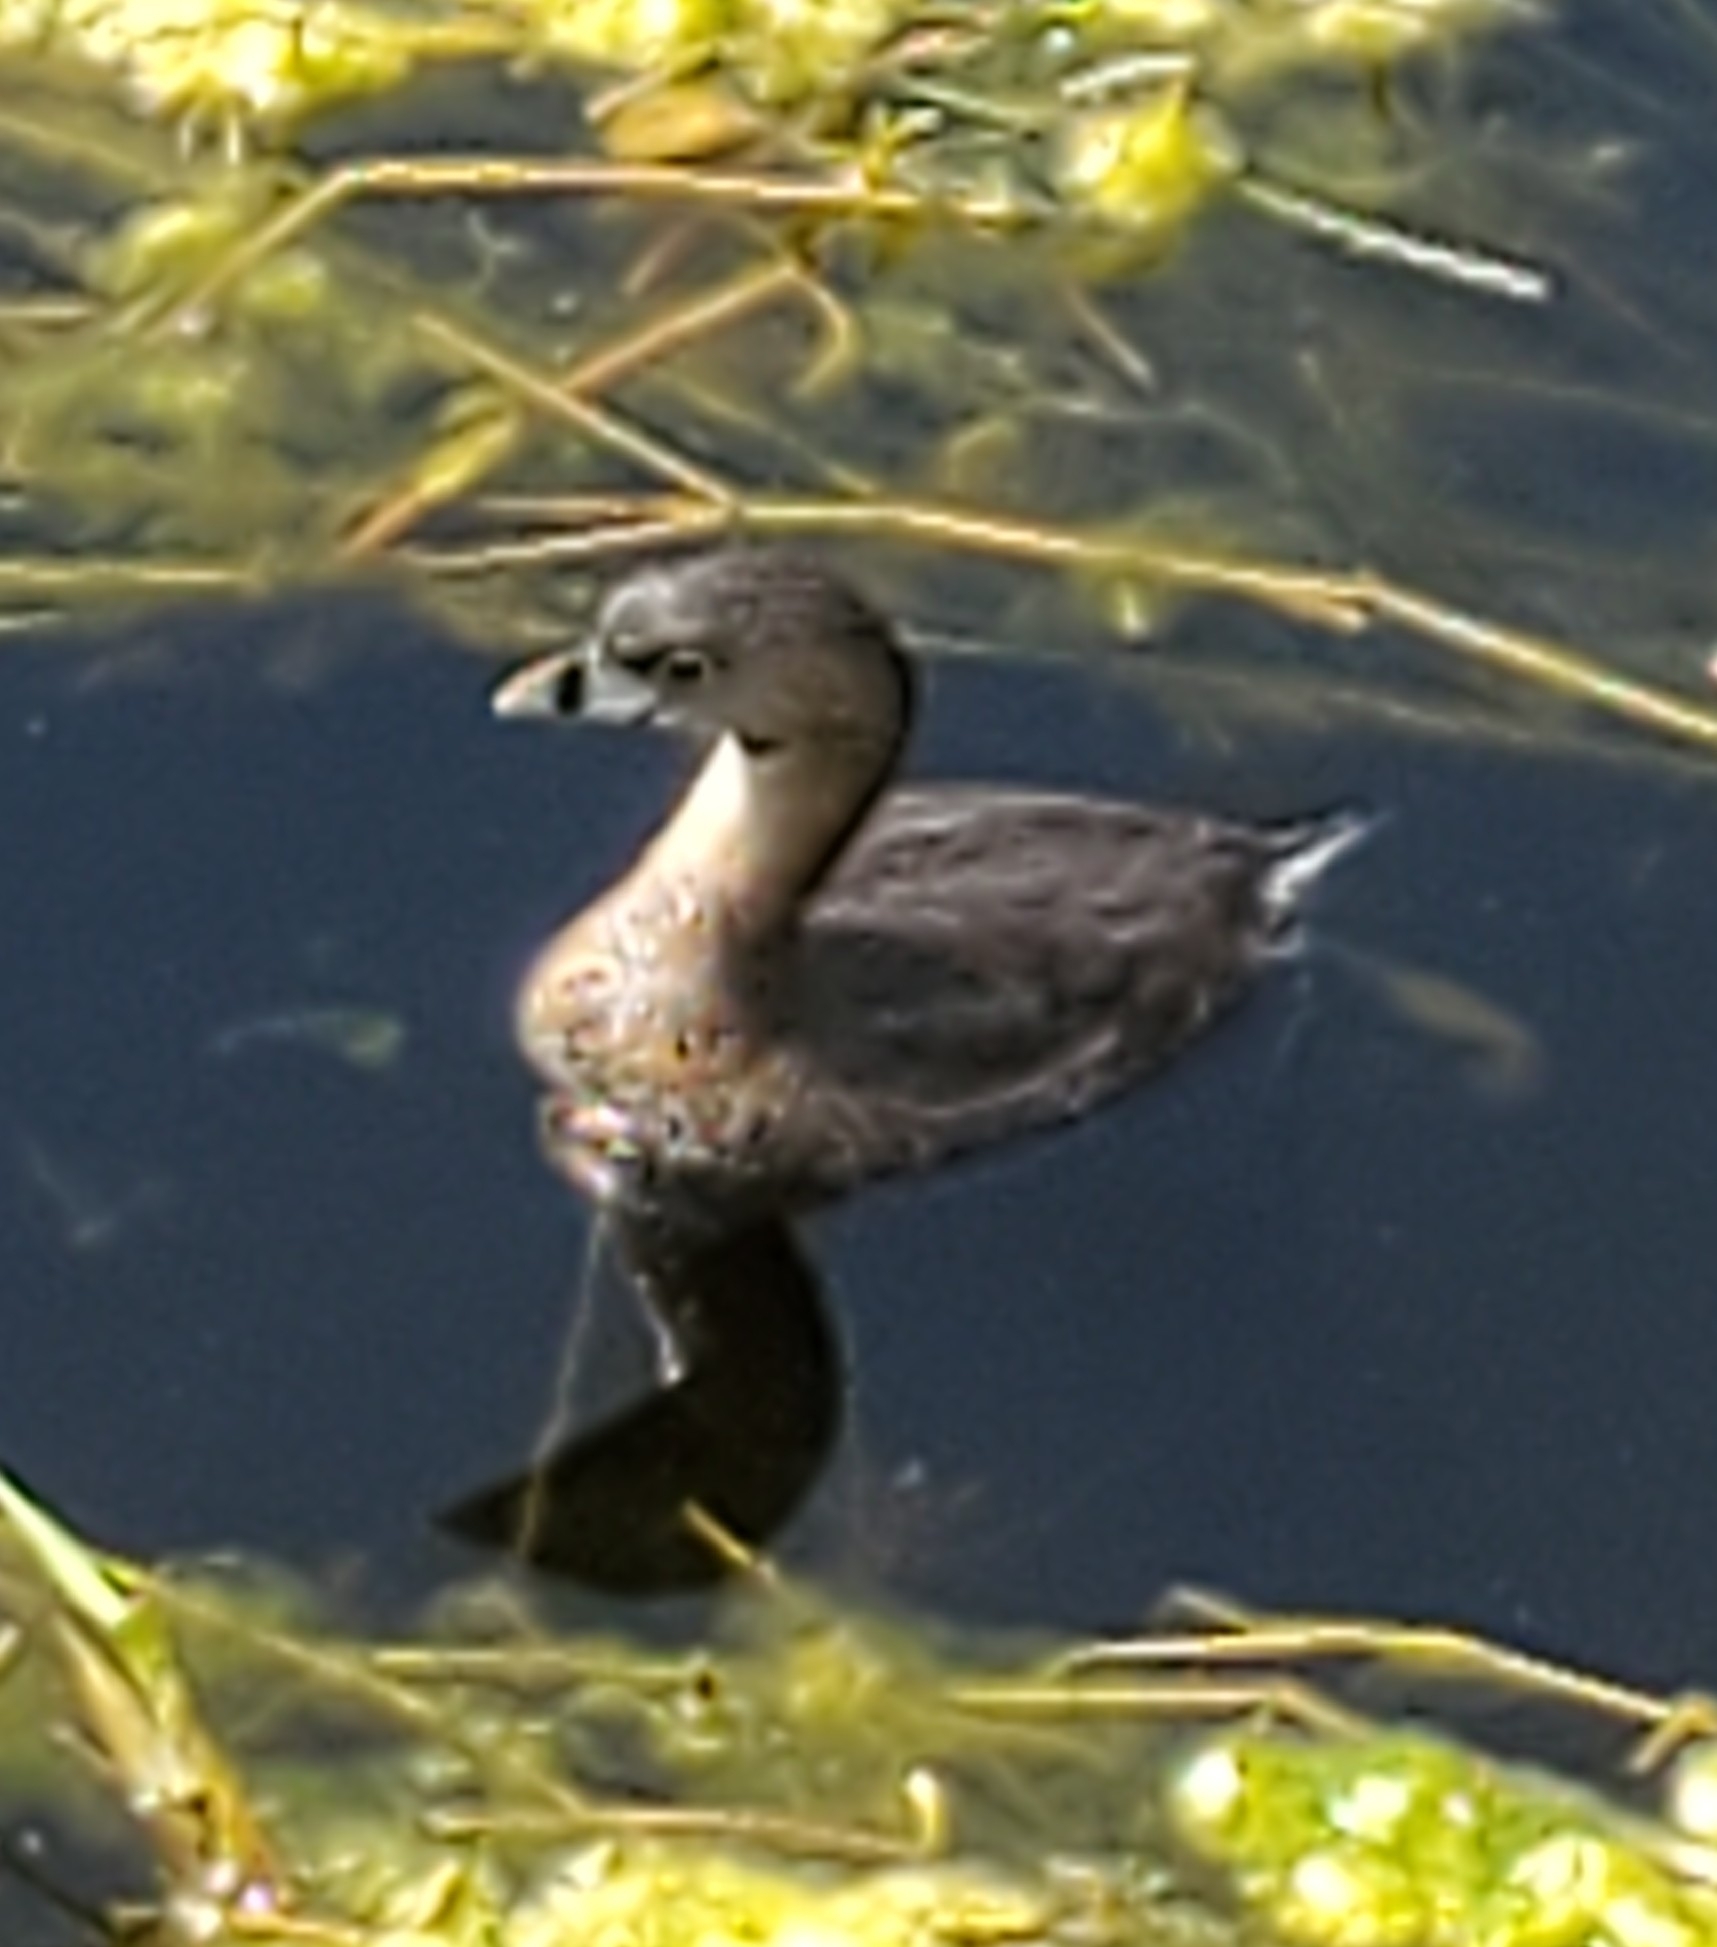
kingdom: Animalia
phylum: Chordata
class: Aves
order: Podicipediformes
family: Podicipedidae
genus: Podilymbus
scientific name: Podilymbus podiceps
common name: Pied-billed grebe
